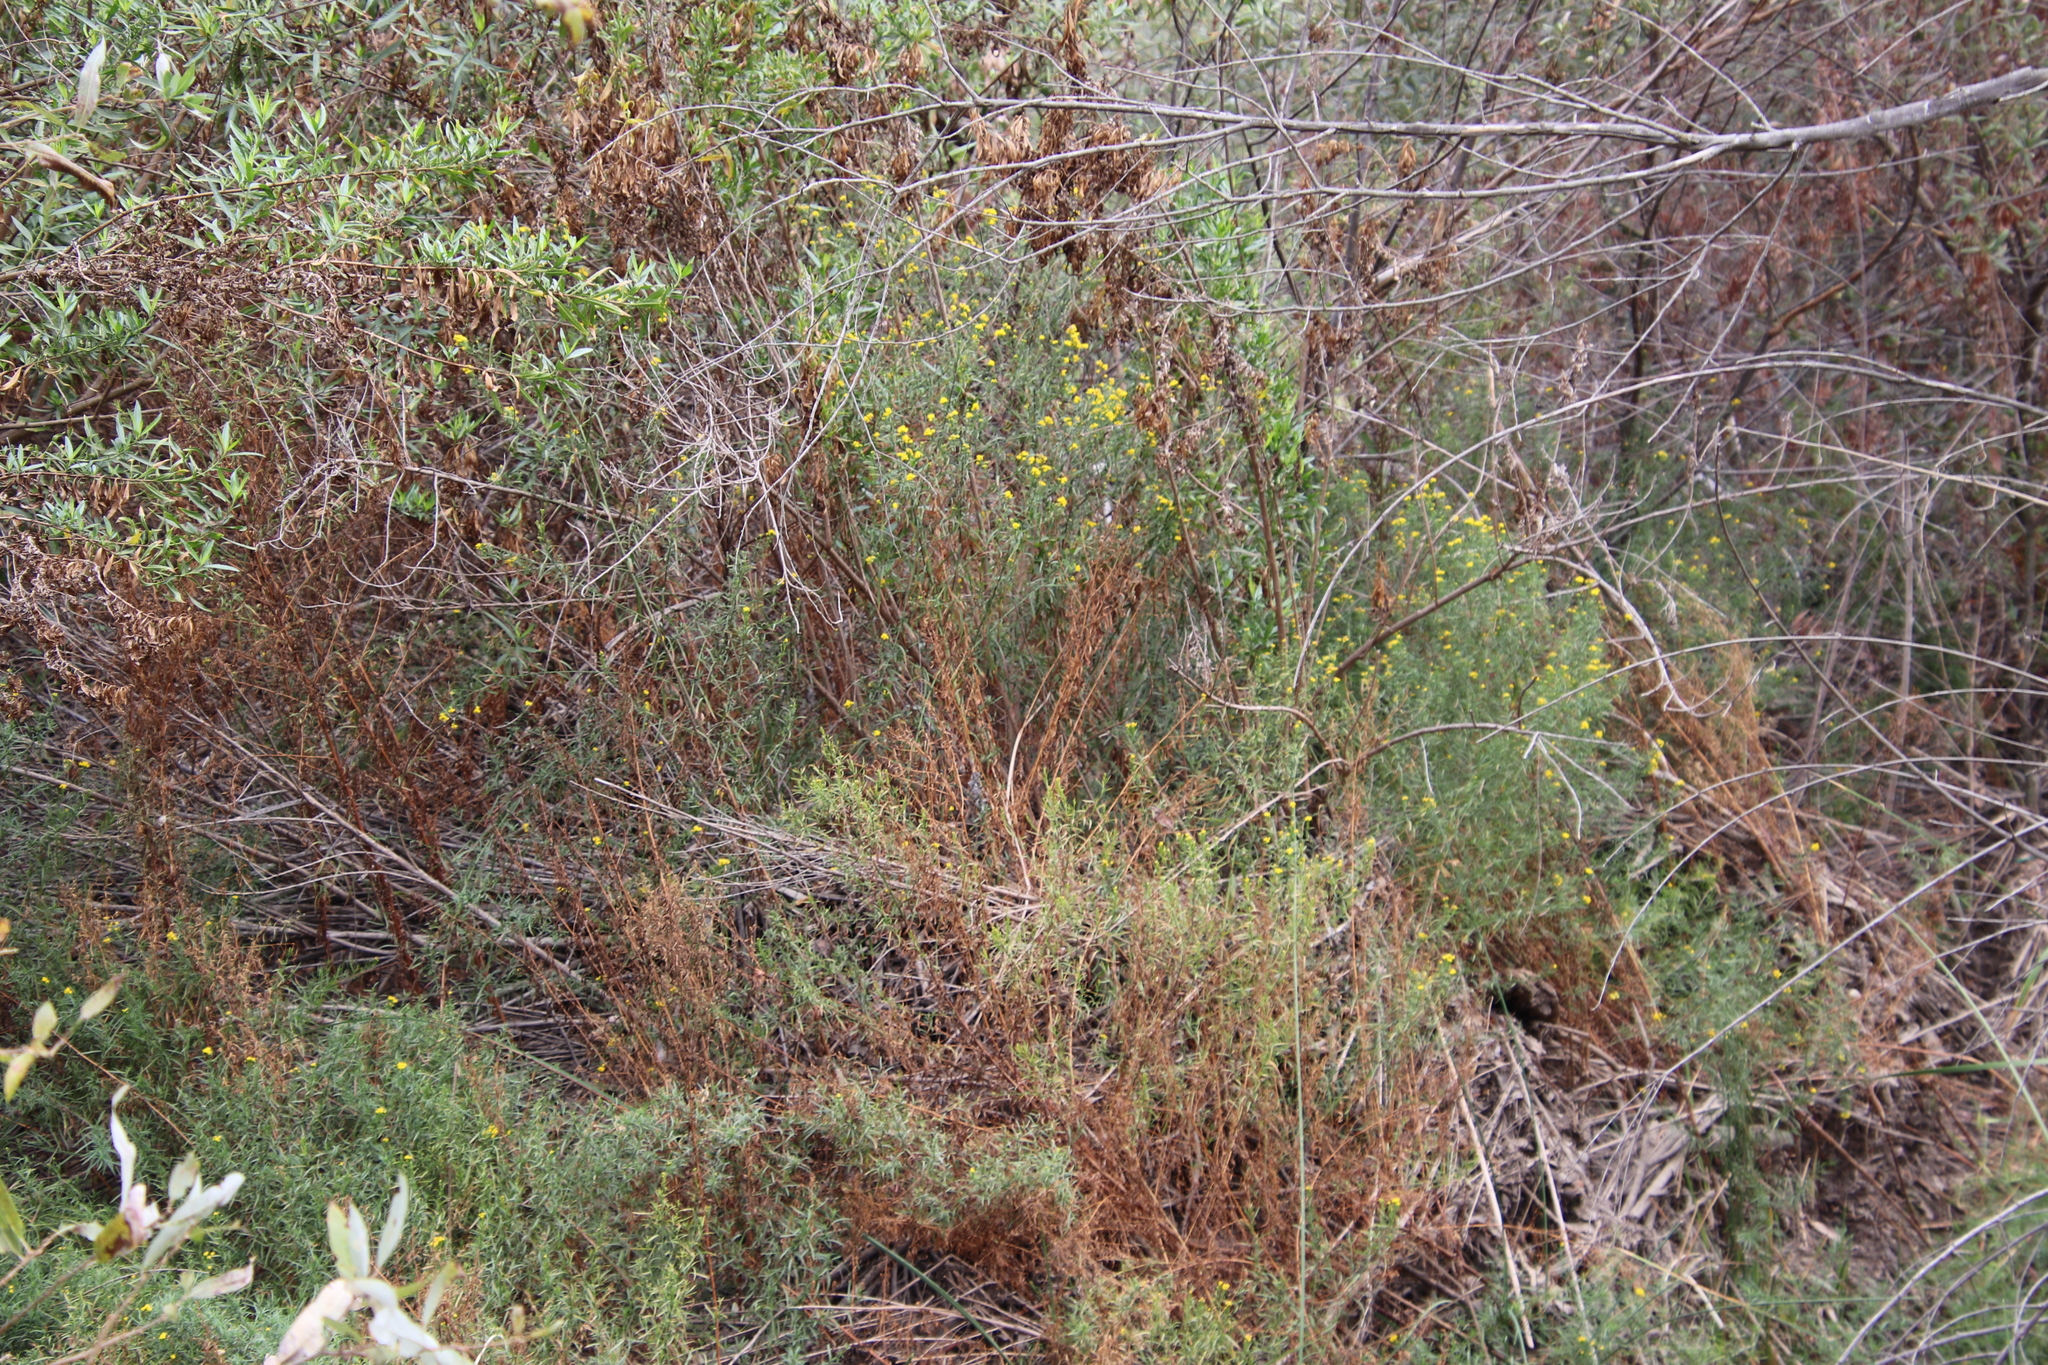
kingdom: Plantae
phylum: Tracheophyta
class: Magnoliopsida
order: Asterales
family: Asteraceae
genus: Euthamia
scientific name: Euthamia occidentalis
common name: Western goldentop
